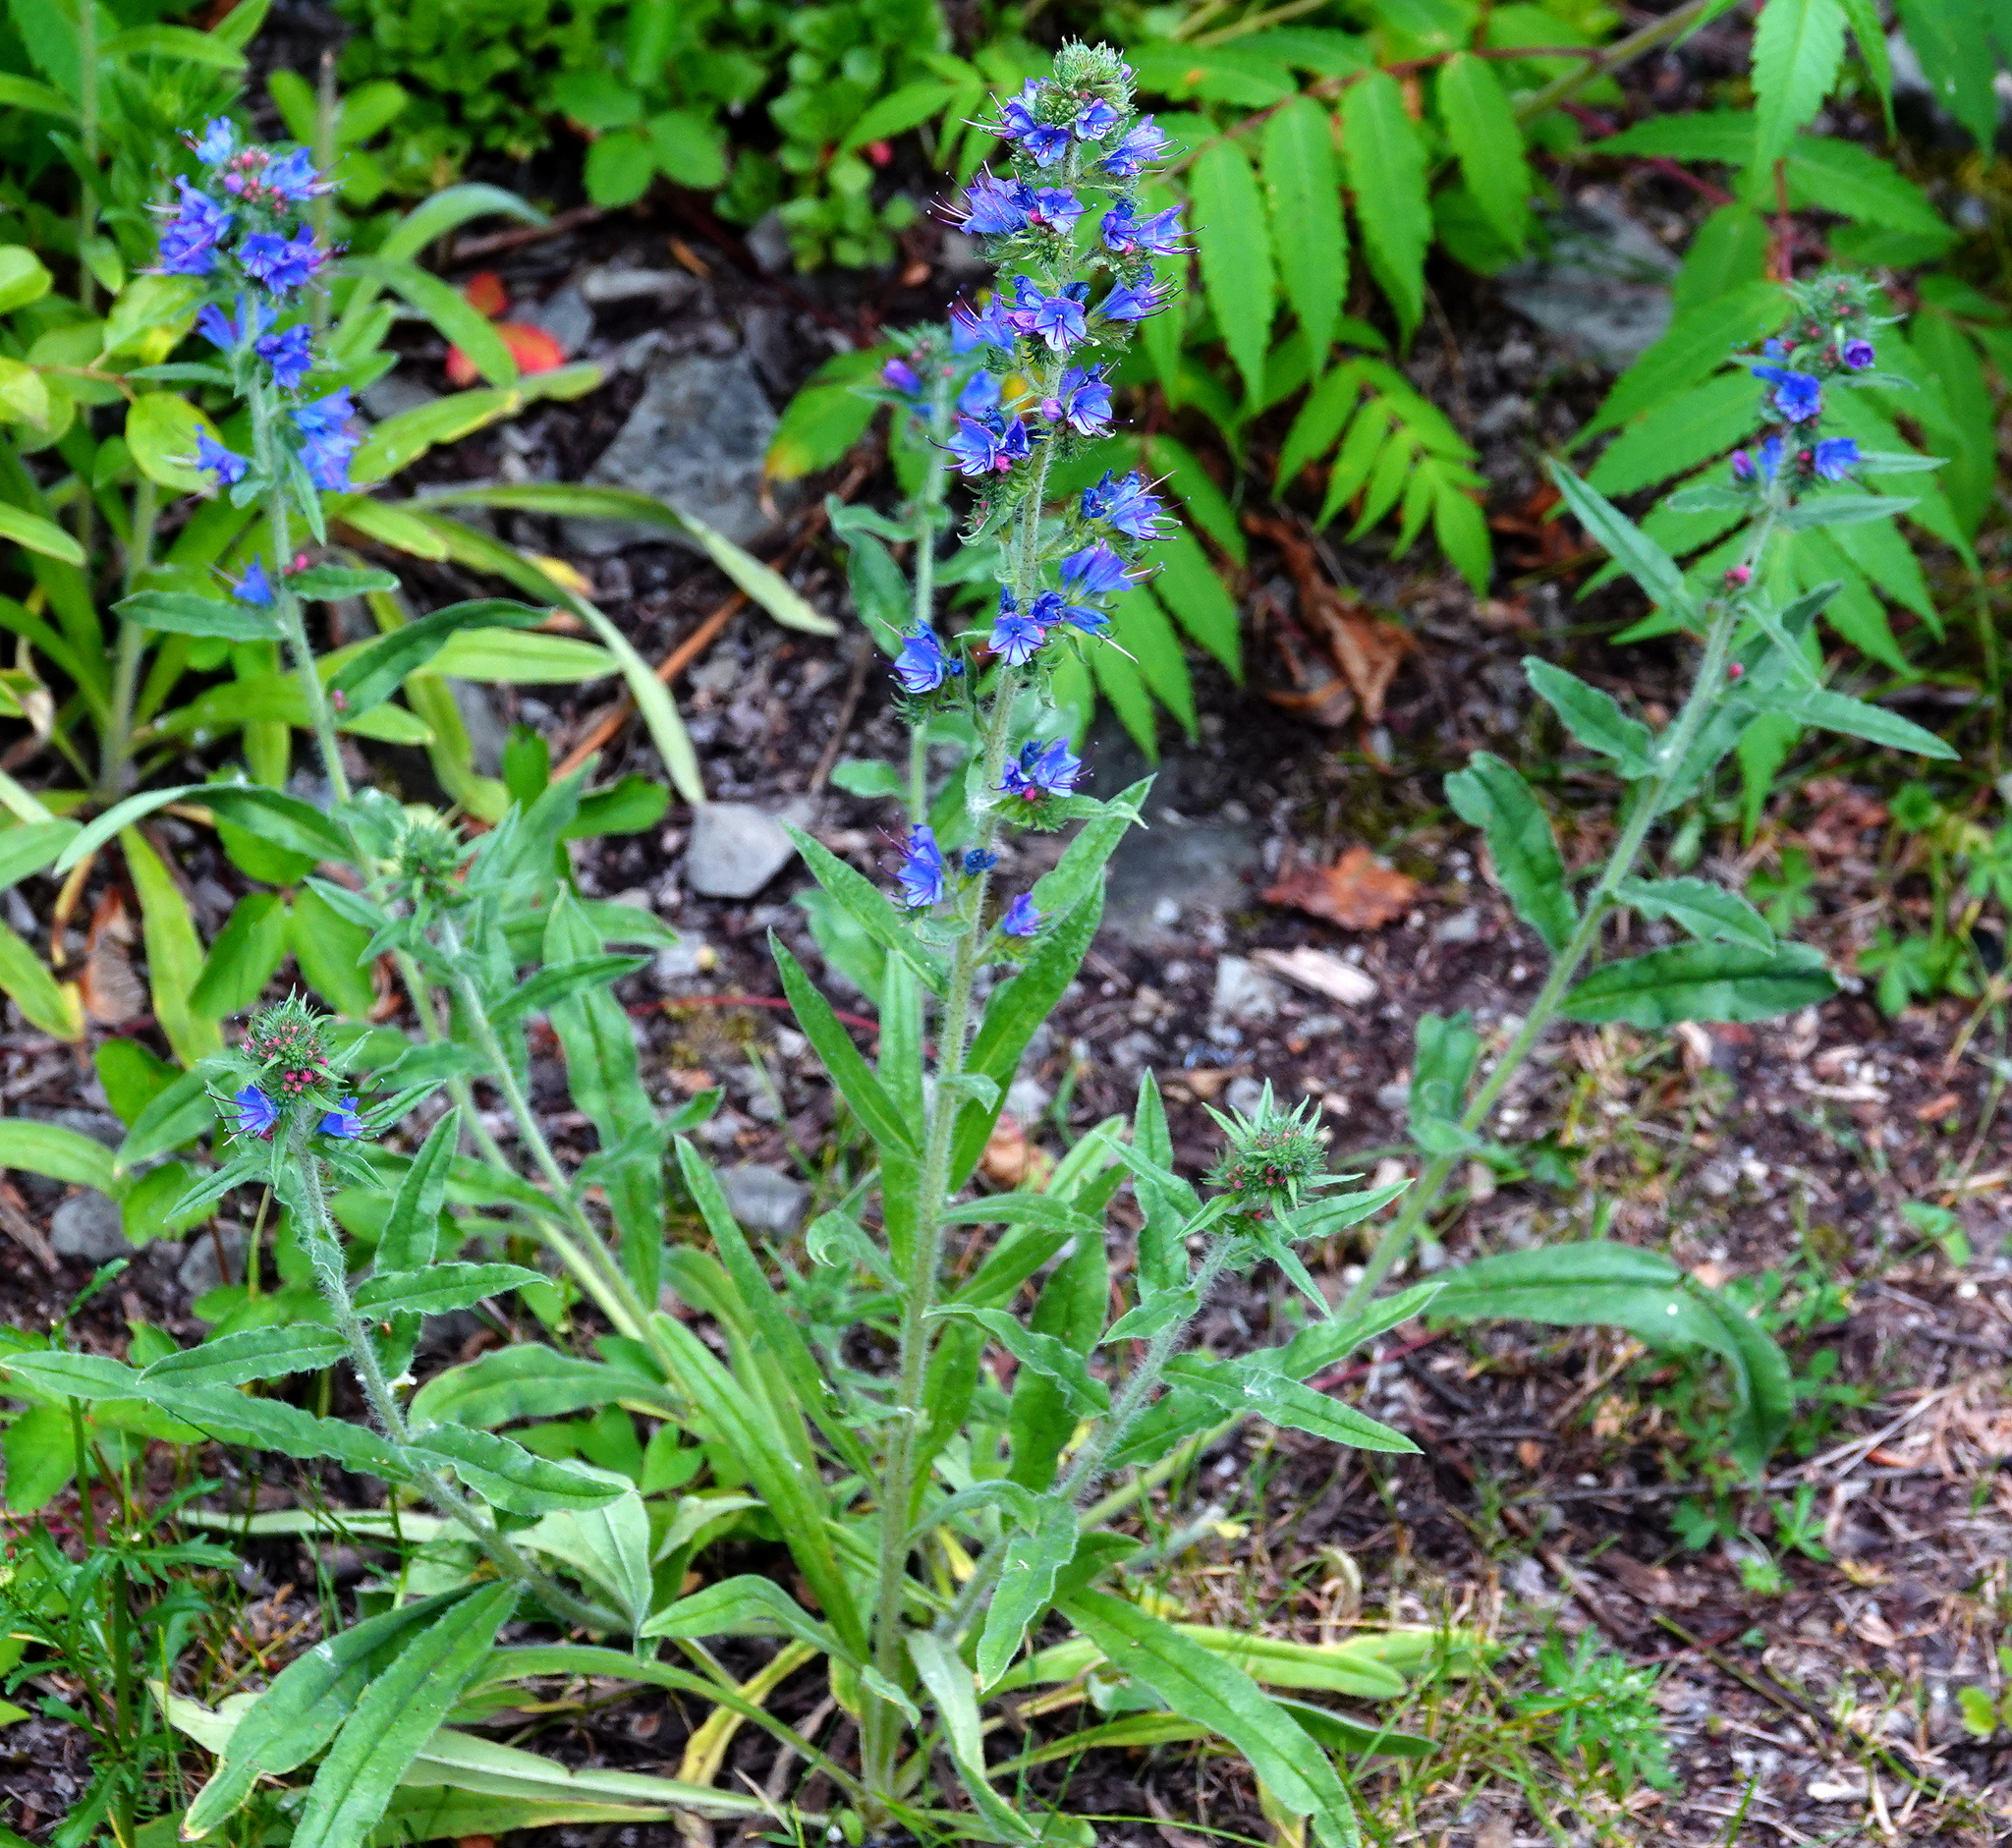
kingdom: Plantae
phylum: Tracheophyta
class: Magnoliopsida
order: Boraginales
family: Boraginaceae
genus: Echium
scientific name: Echium vulgare
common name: Common viper's bugloss
